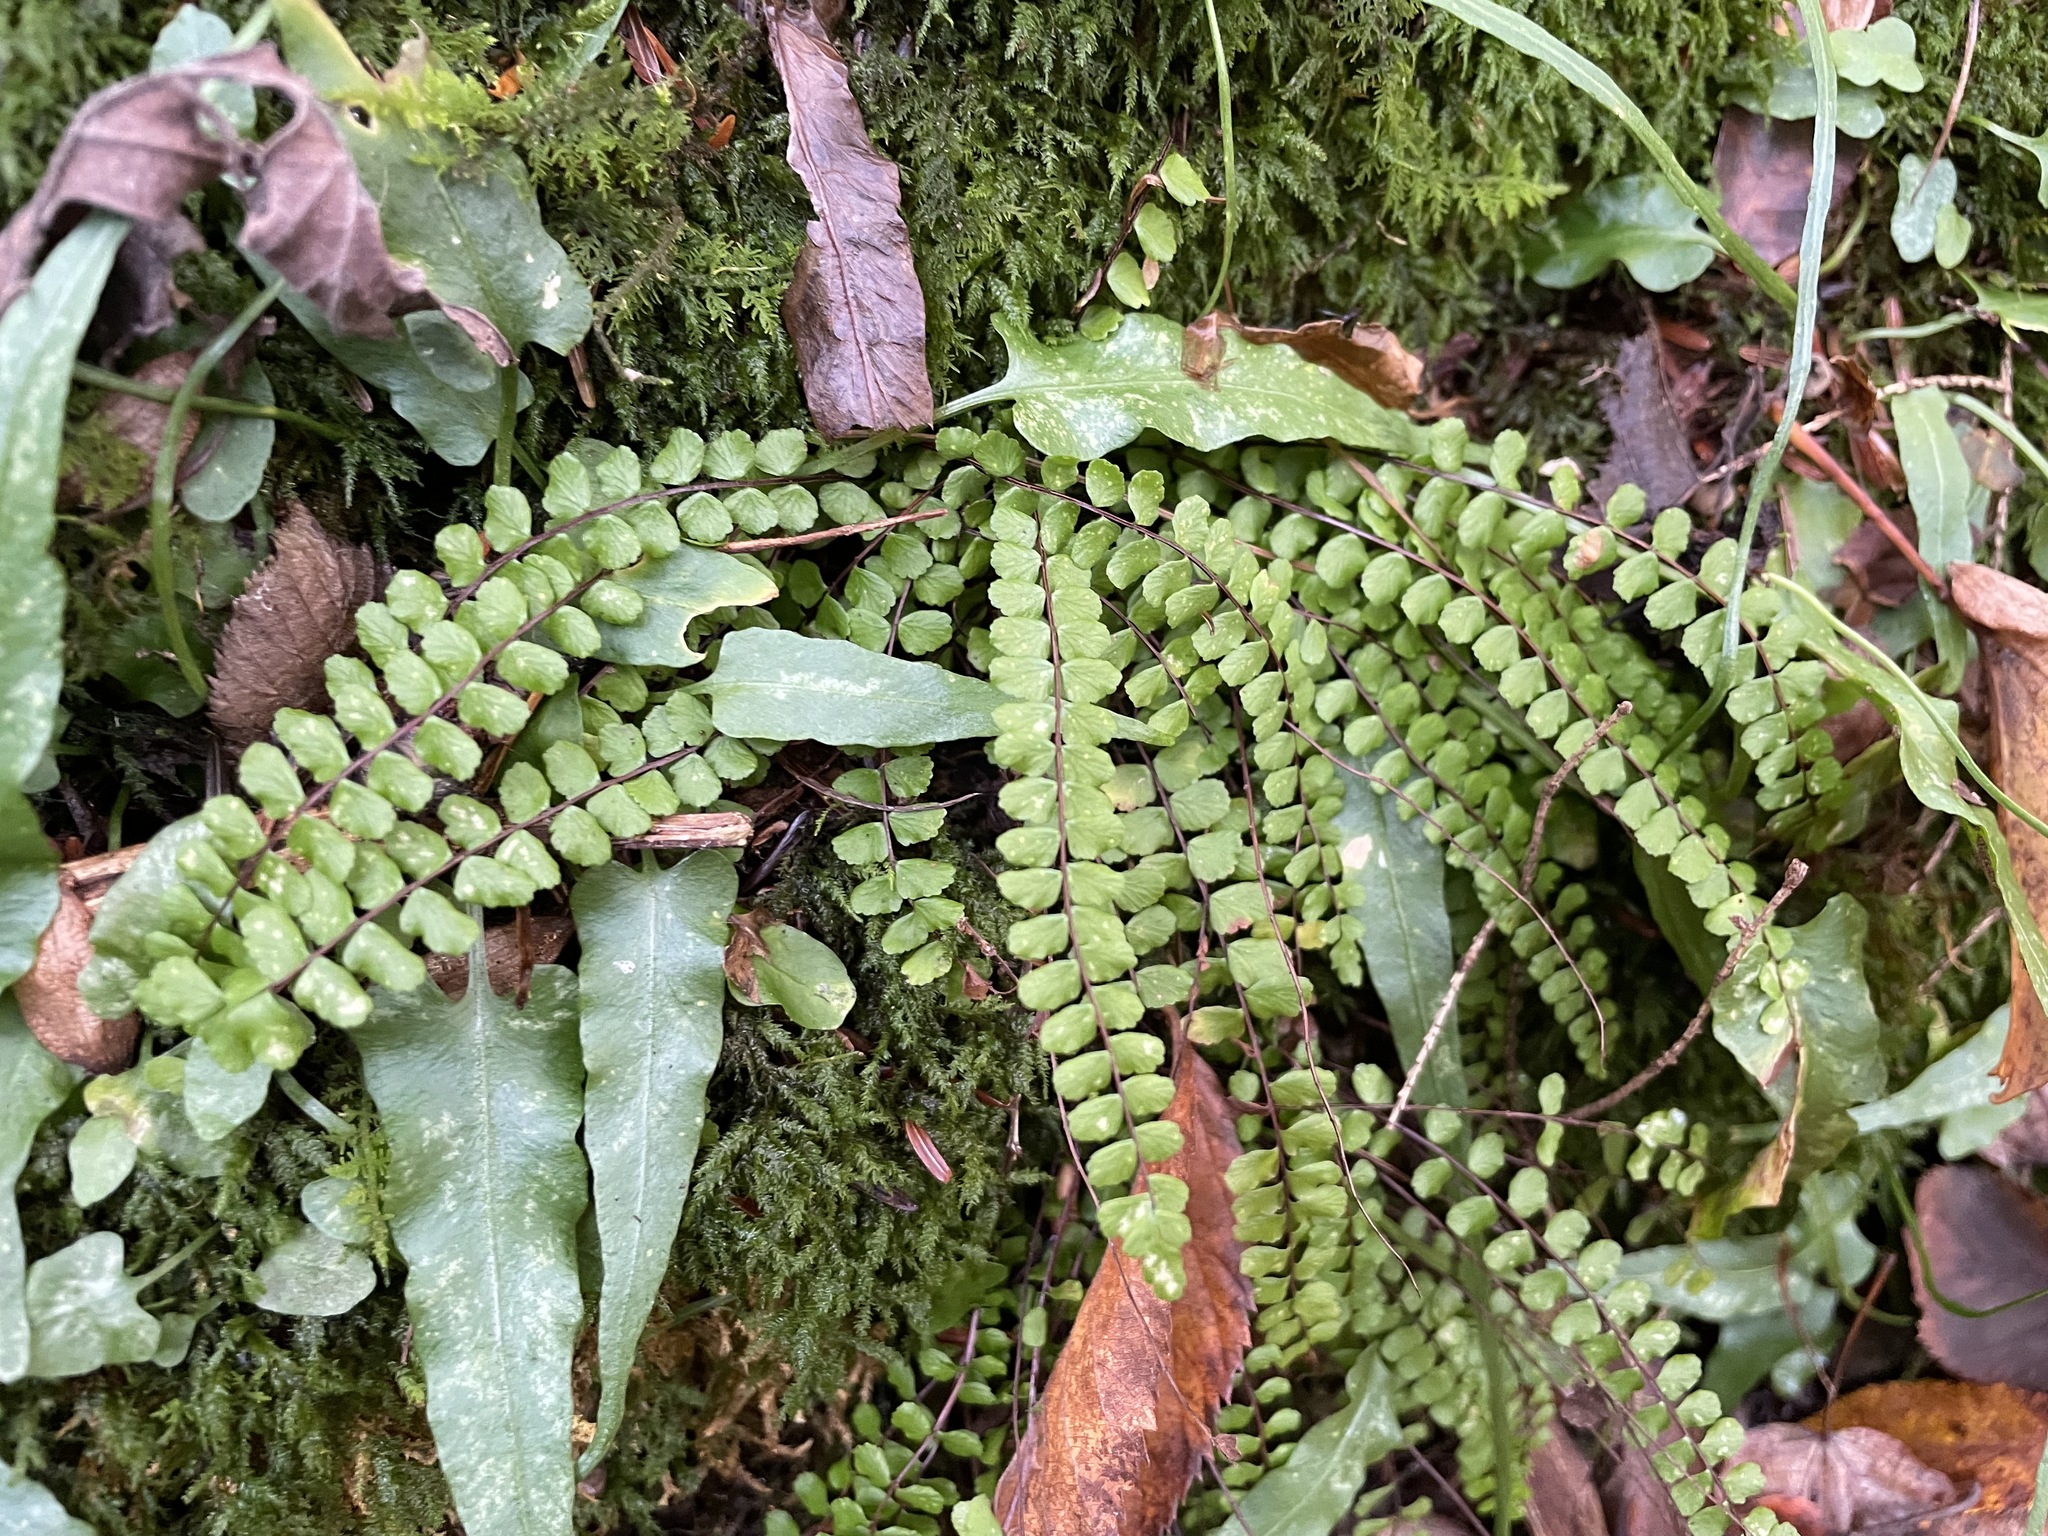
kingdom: Plantae
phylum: Tracheophyta
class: Polypodiopsida
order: Polypodiales
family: Aspleniaceae
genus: Asplenium
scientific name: Asplenium trichomanes
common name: Maidenhair spleenwort
